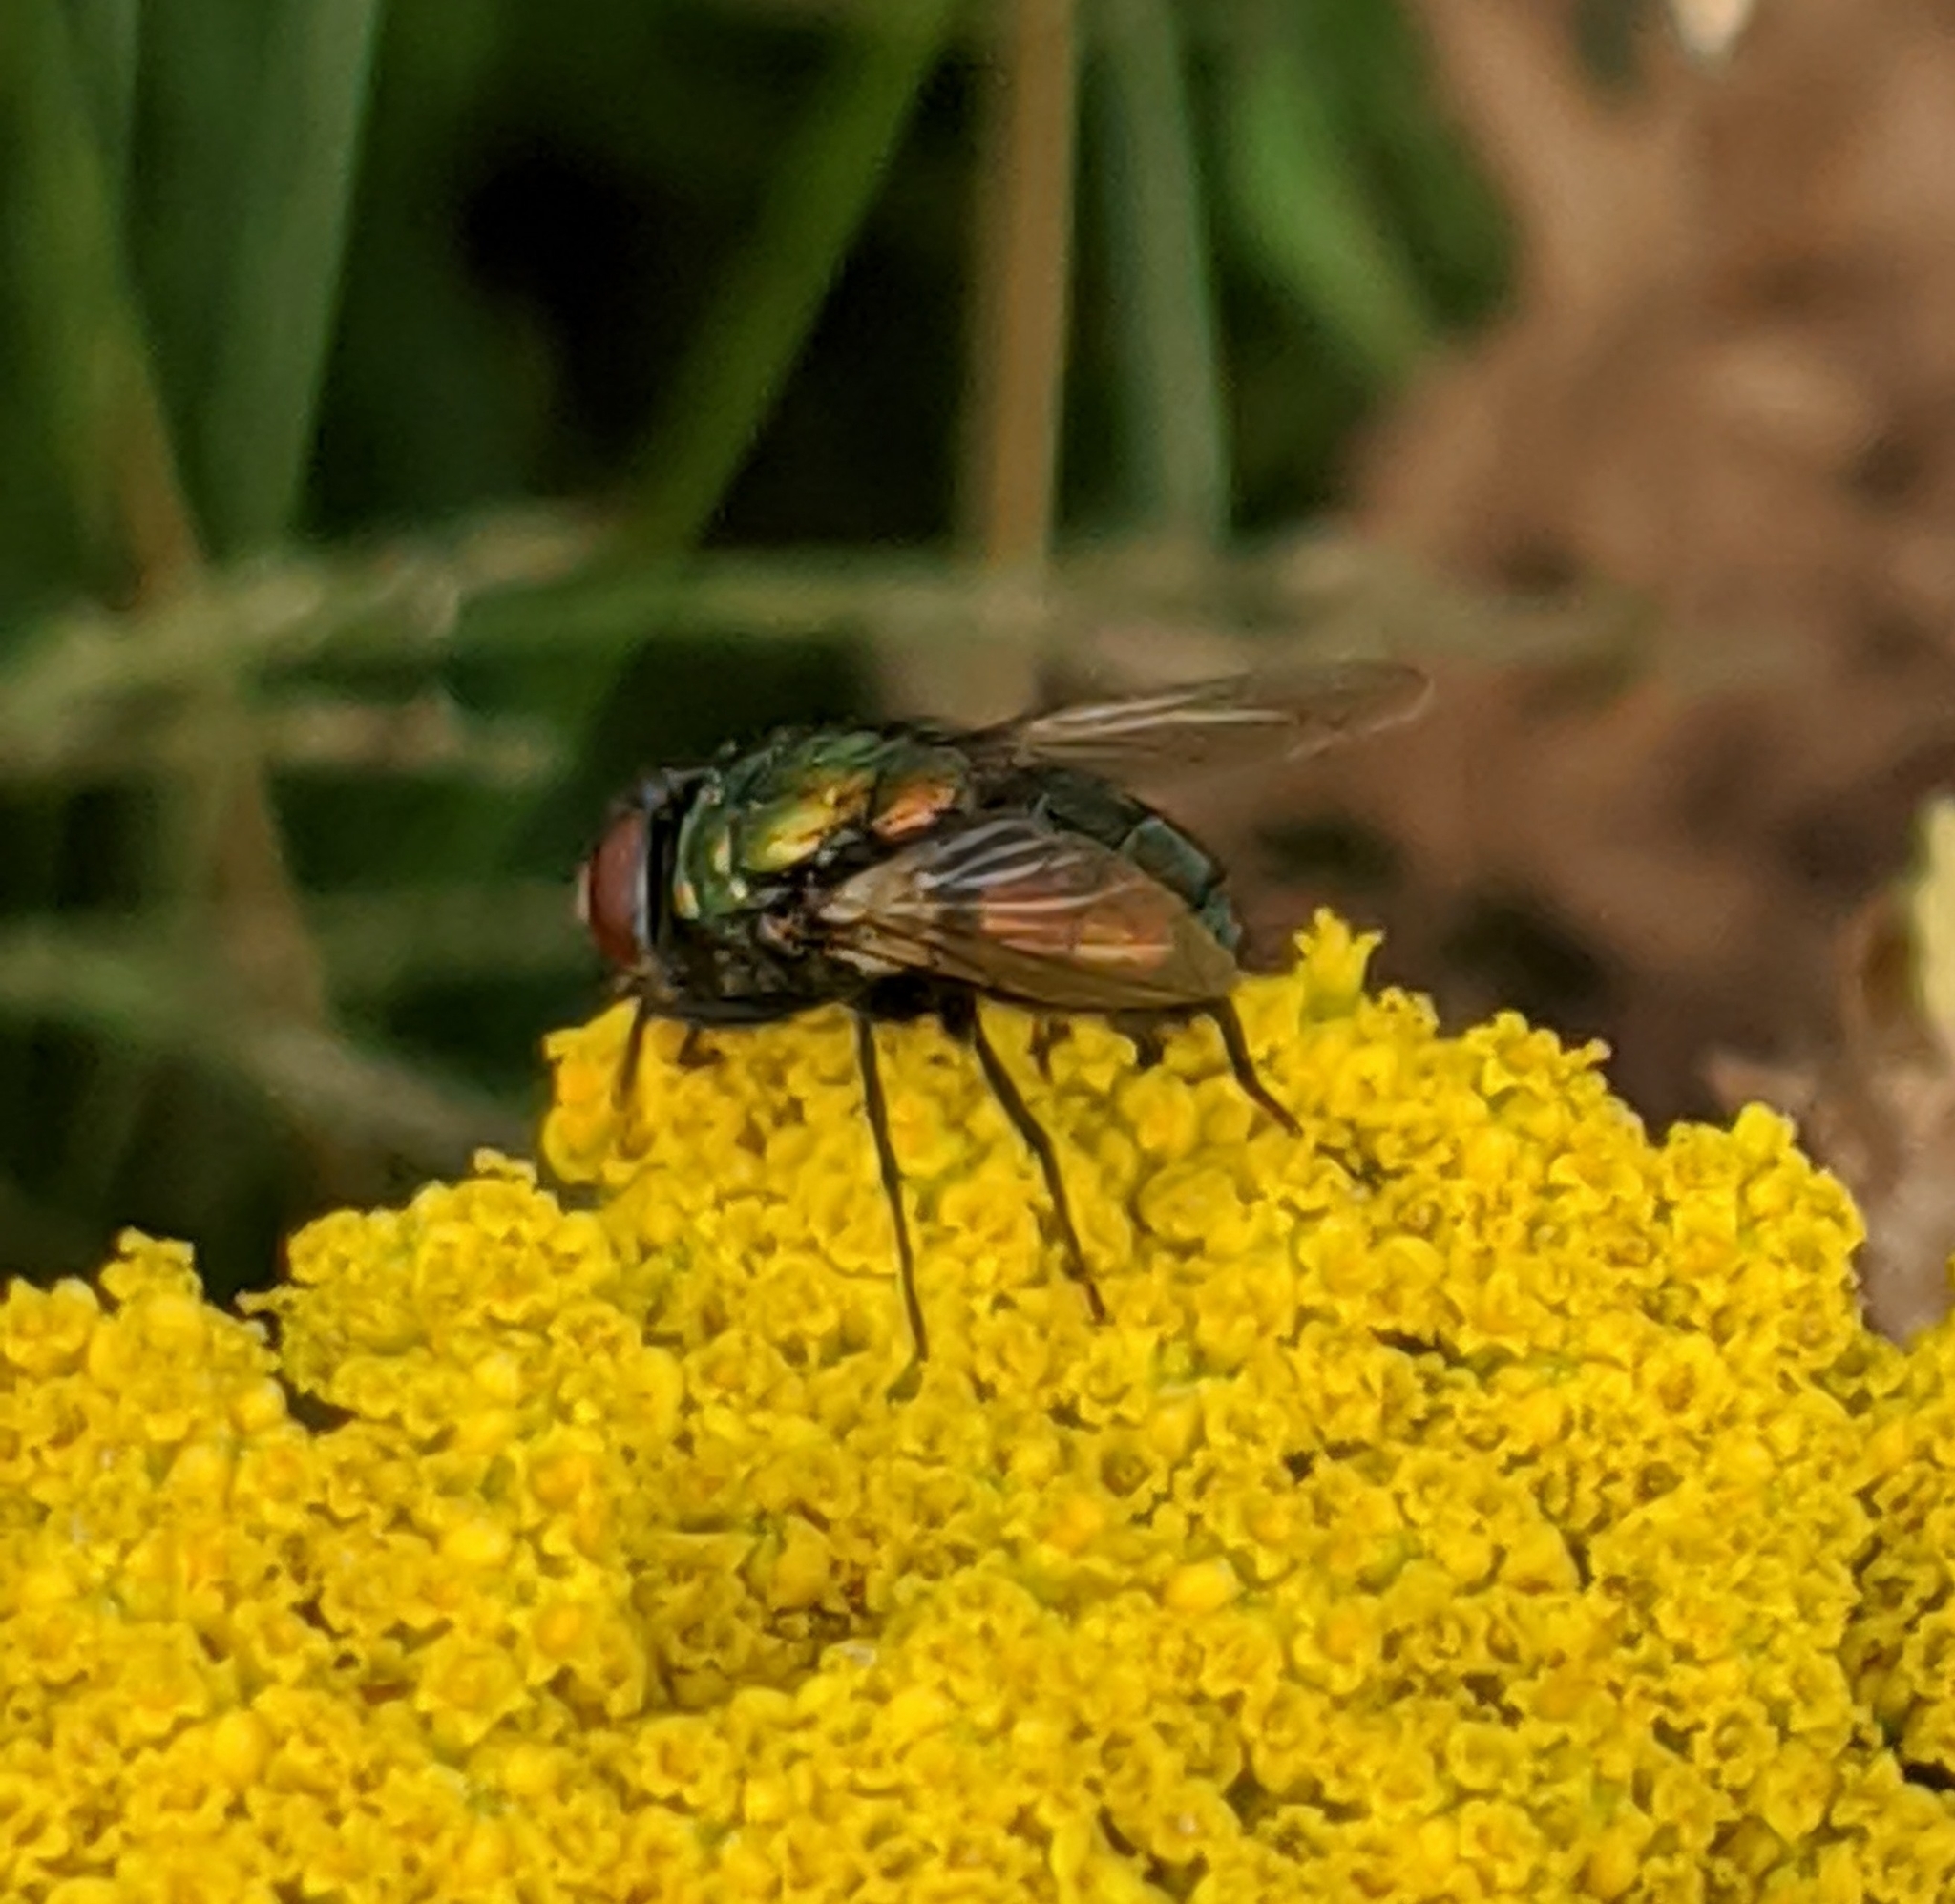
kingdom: Animalia
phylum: Arthropoda
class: Insecta
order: Diptera
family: Calliphoridae
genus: Lucilia
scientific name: Lucilia sericata
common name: Blow fly
